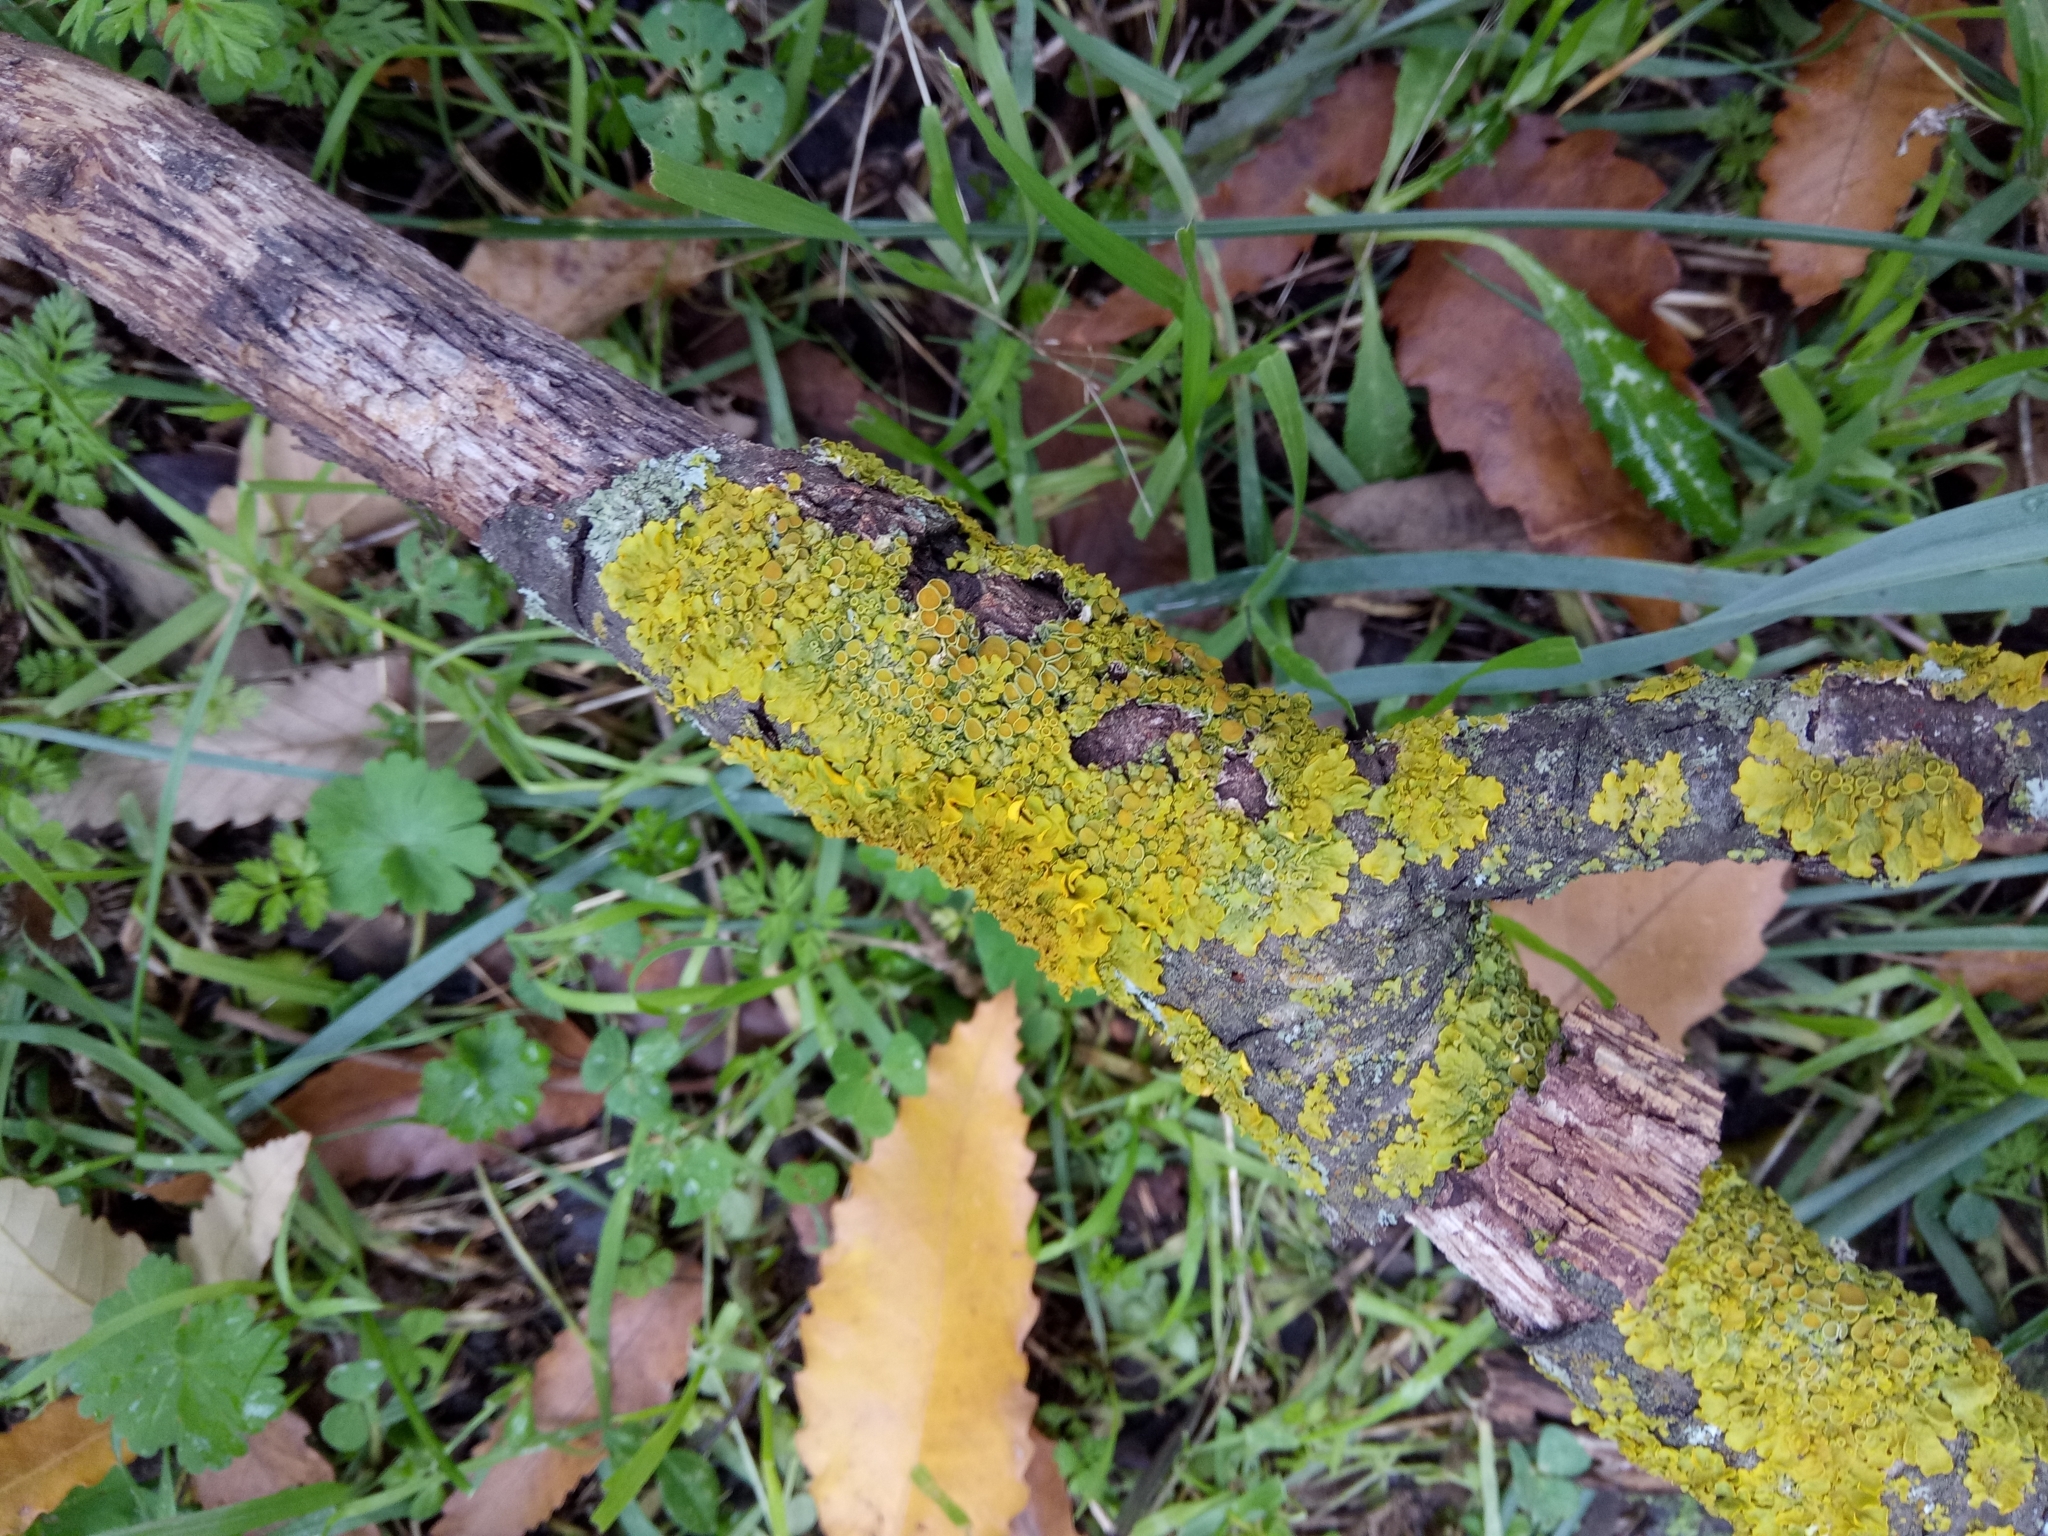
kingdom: Fungi
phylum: Ascomycota
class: Lecanoromycetes
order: Teloschistales
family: Teloschistaceae
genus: Xanthoria
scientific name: Xanthoria parietina
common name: Common orange lichen
